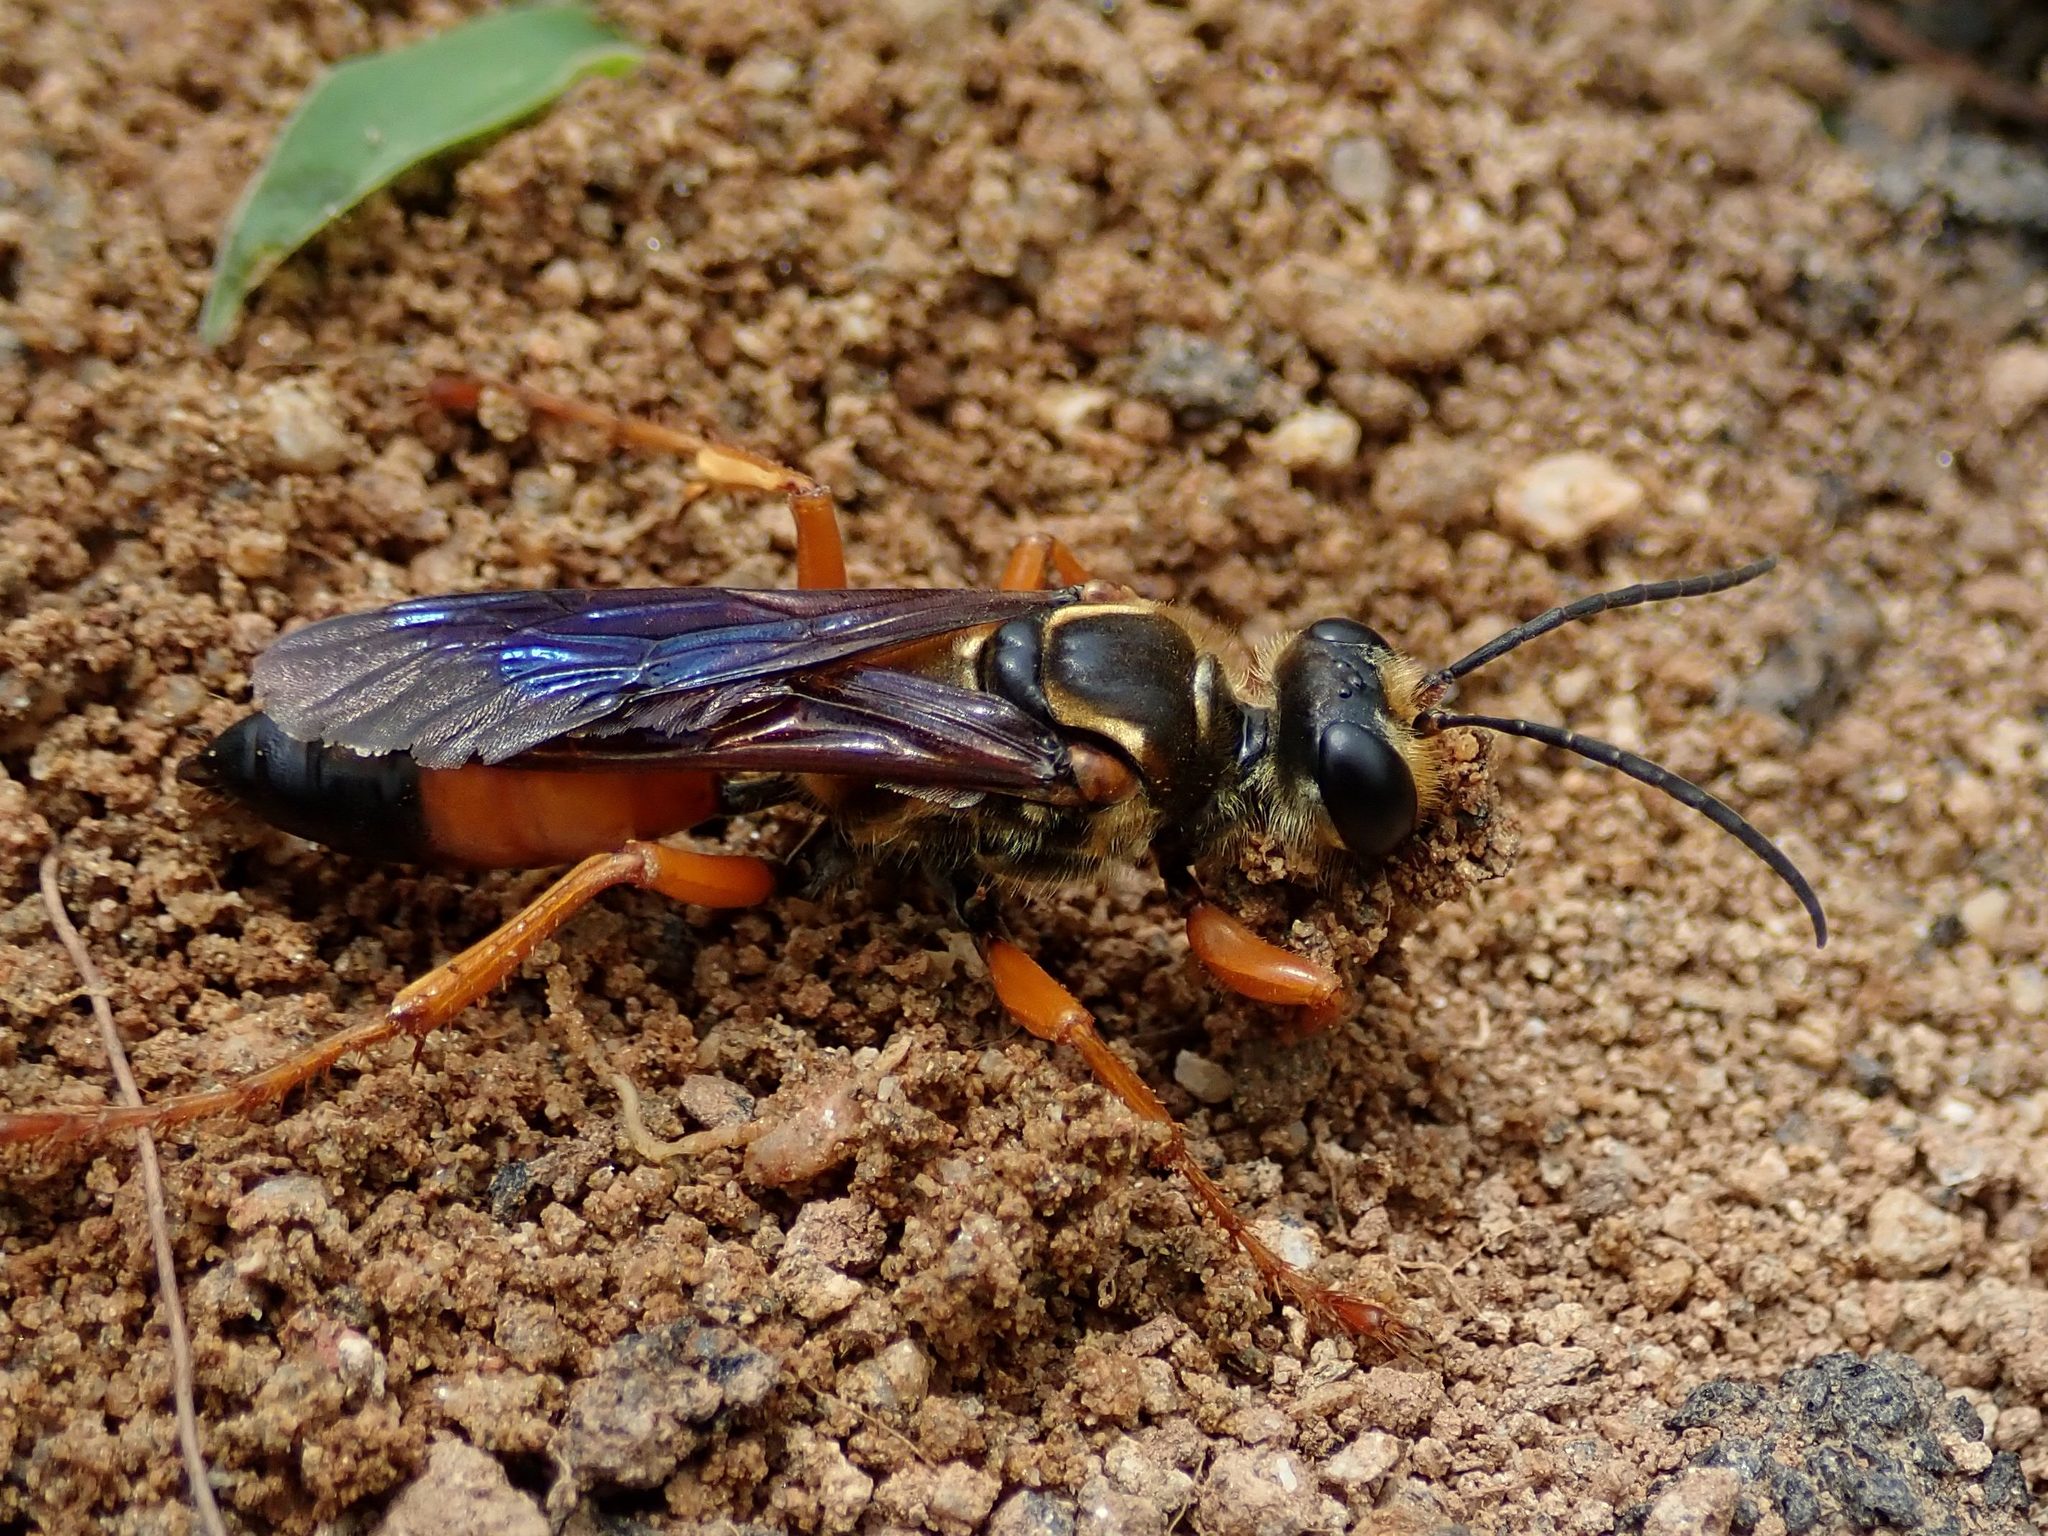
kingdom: Animalia
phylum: Arthropoda
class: Insecta
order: Hymenoptera
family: Sphecidae
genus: Sphex
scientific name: Sphex ichneumoneus
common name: Great golden digger wasp
